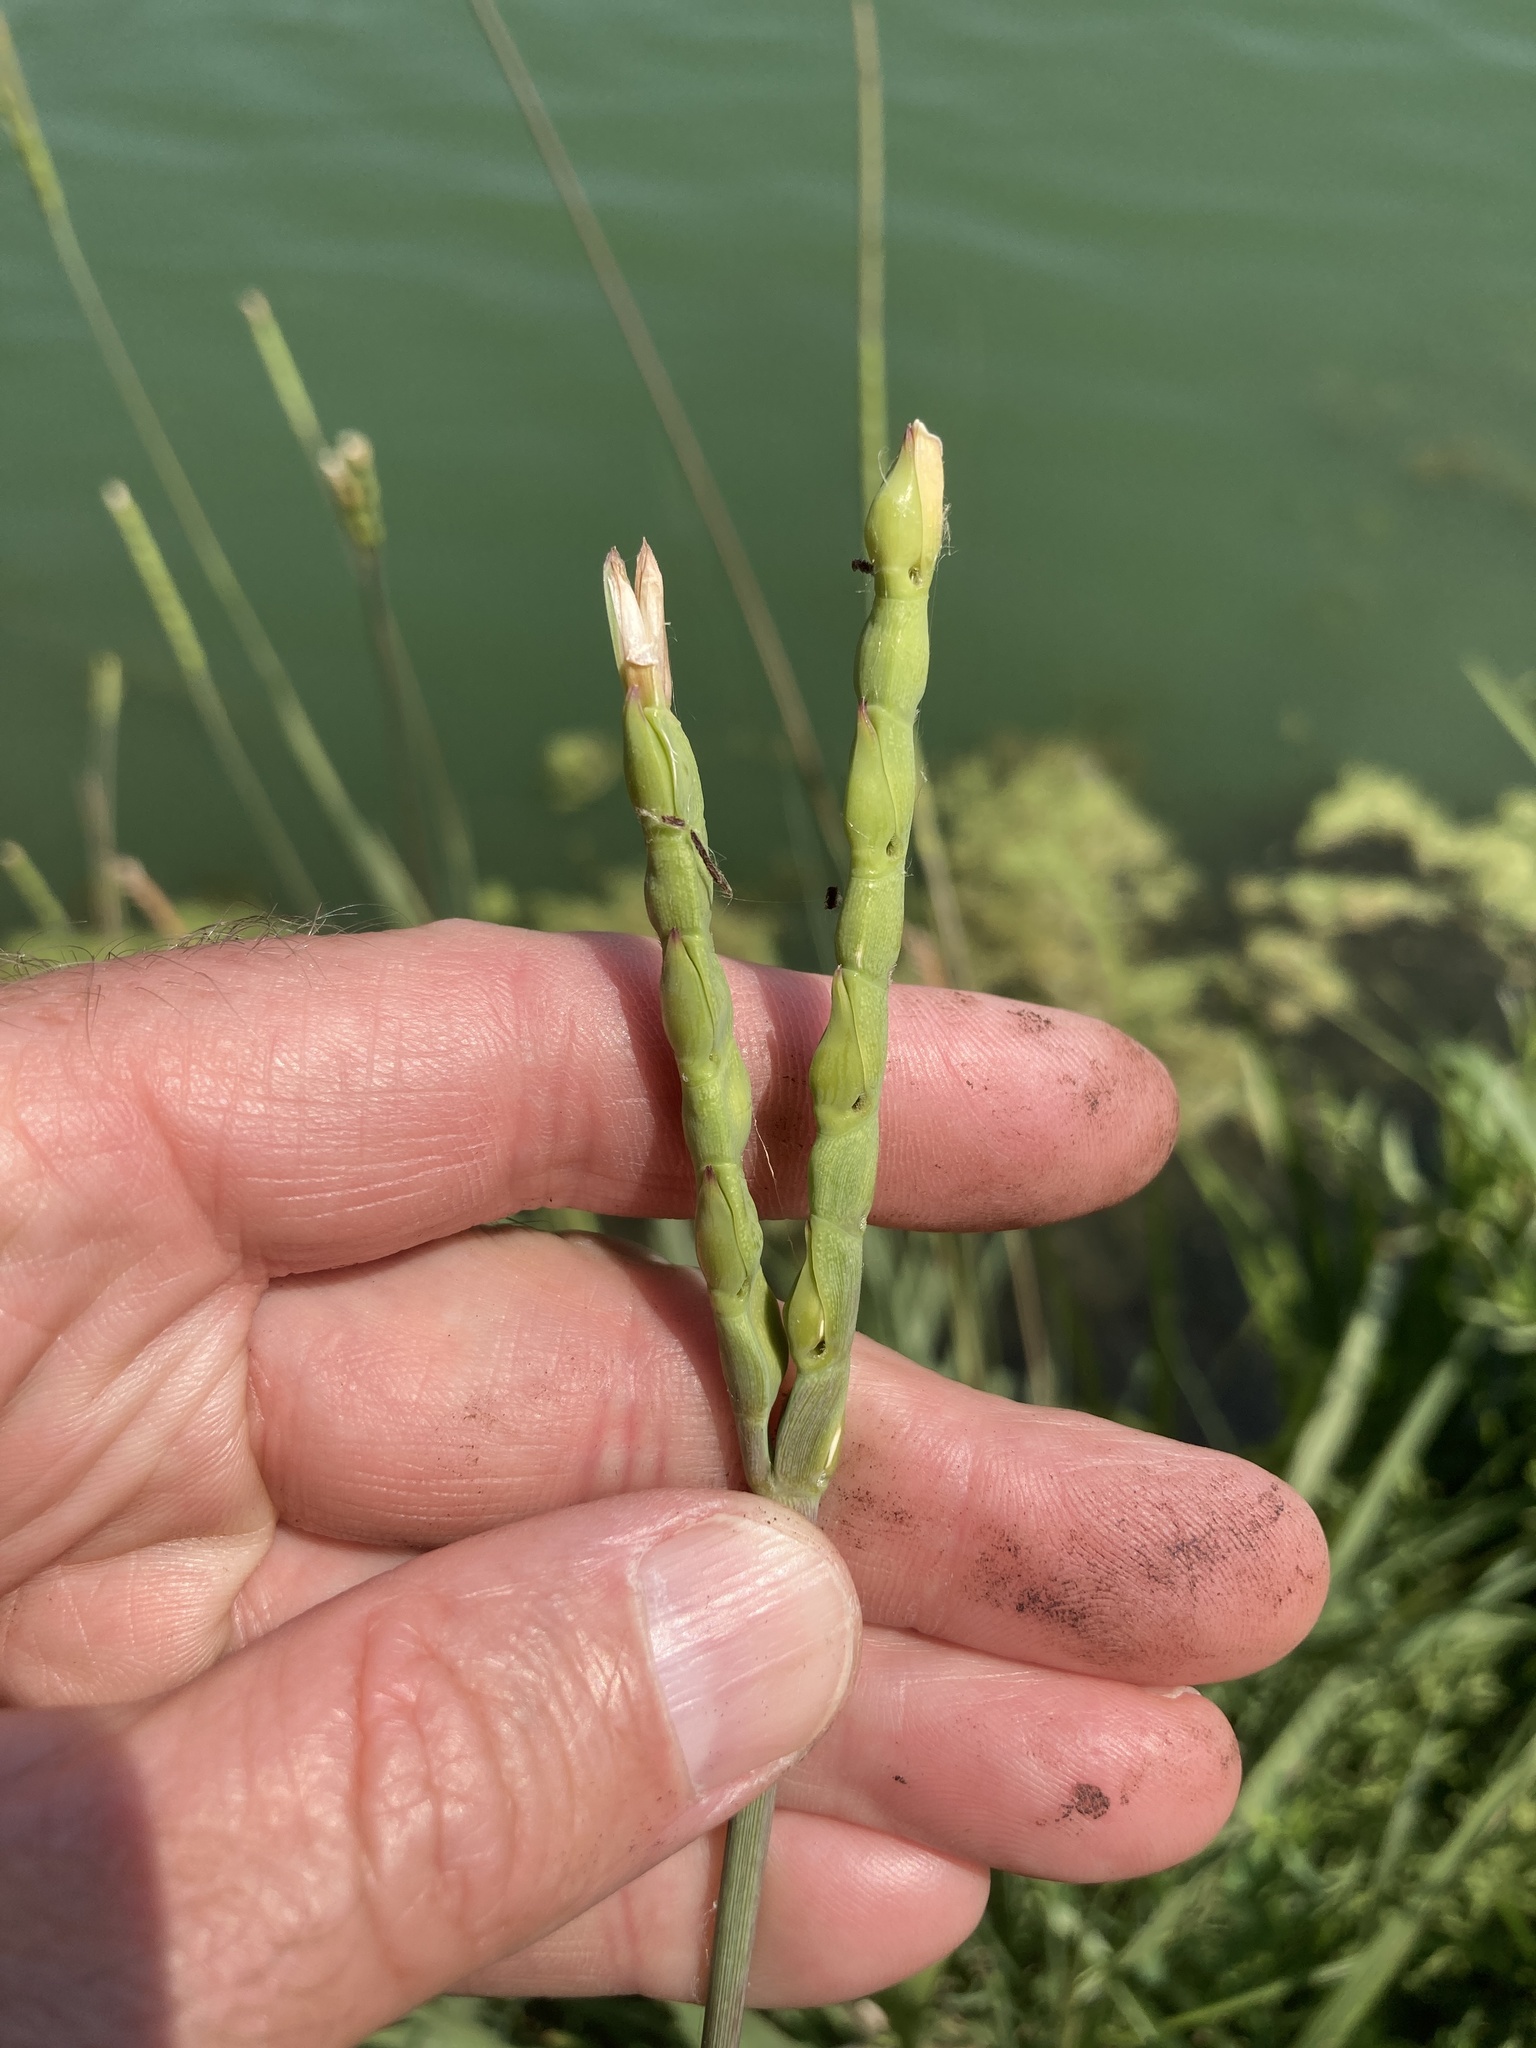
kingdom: Plantae
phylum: Tracheophyta
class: Liliopsida
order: Poales
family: Poaceae
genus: Tripsacum
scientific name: Tripsacum dactyloides
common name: Buffalo-grass
